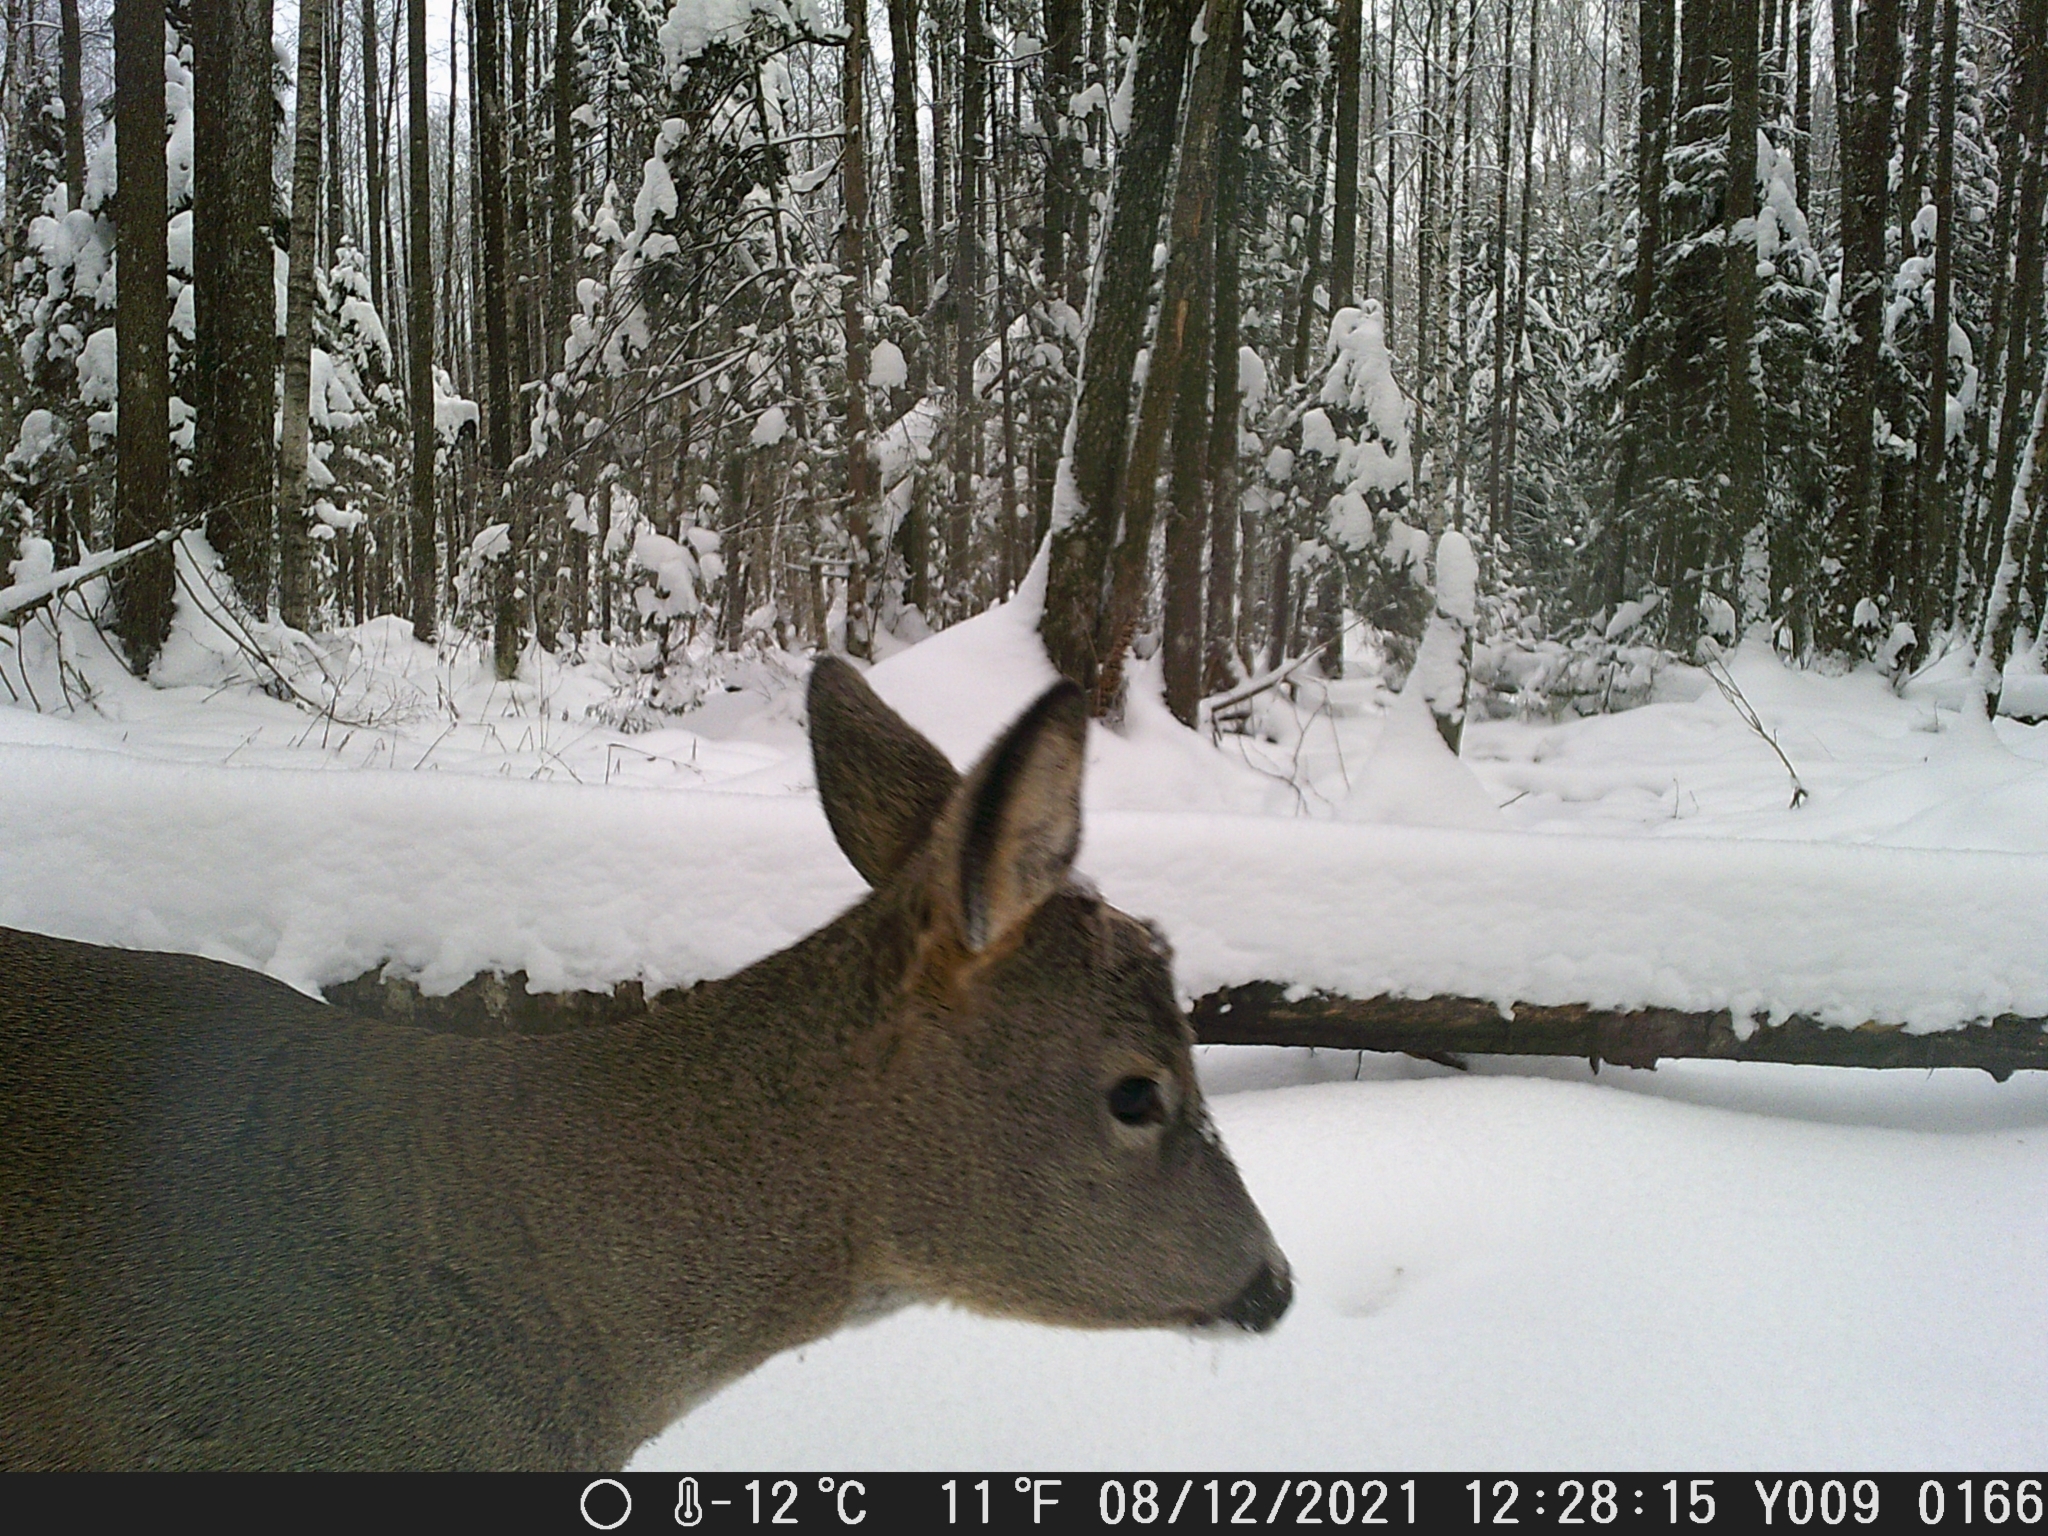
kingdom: Animalia
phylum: Chordata
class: Mammalia
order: Artiodactyla
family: Cervidae
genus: Capreolus
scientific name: Capreolus capreolus
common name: Western roe deer
